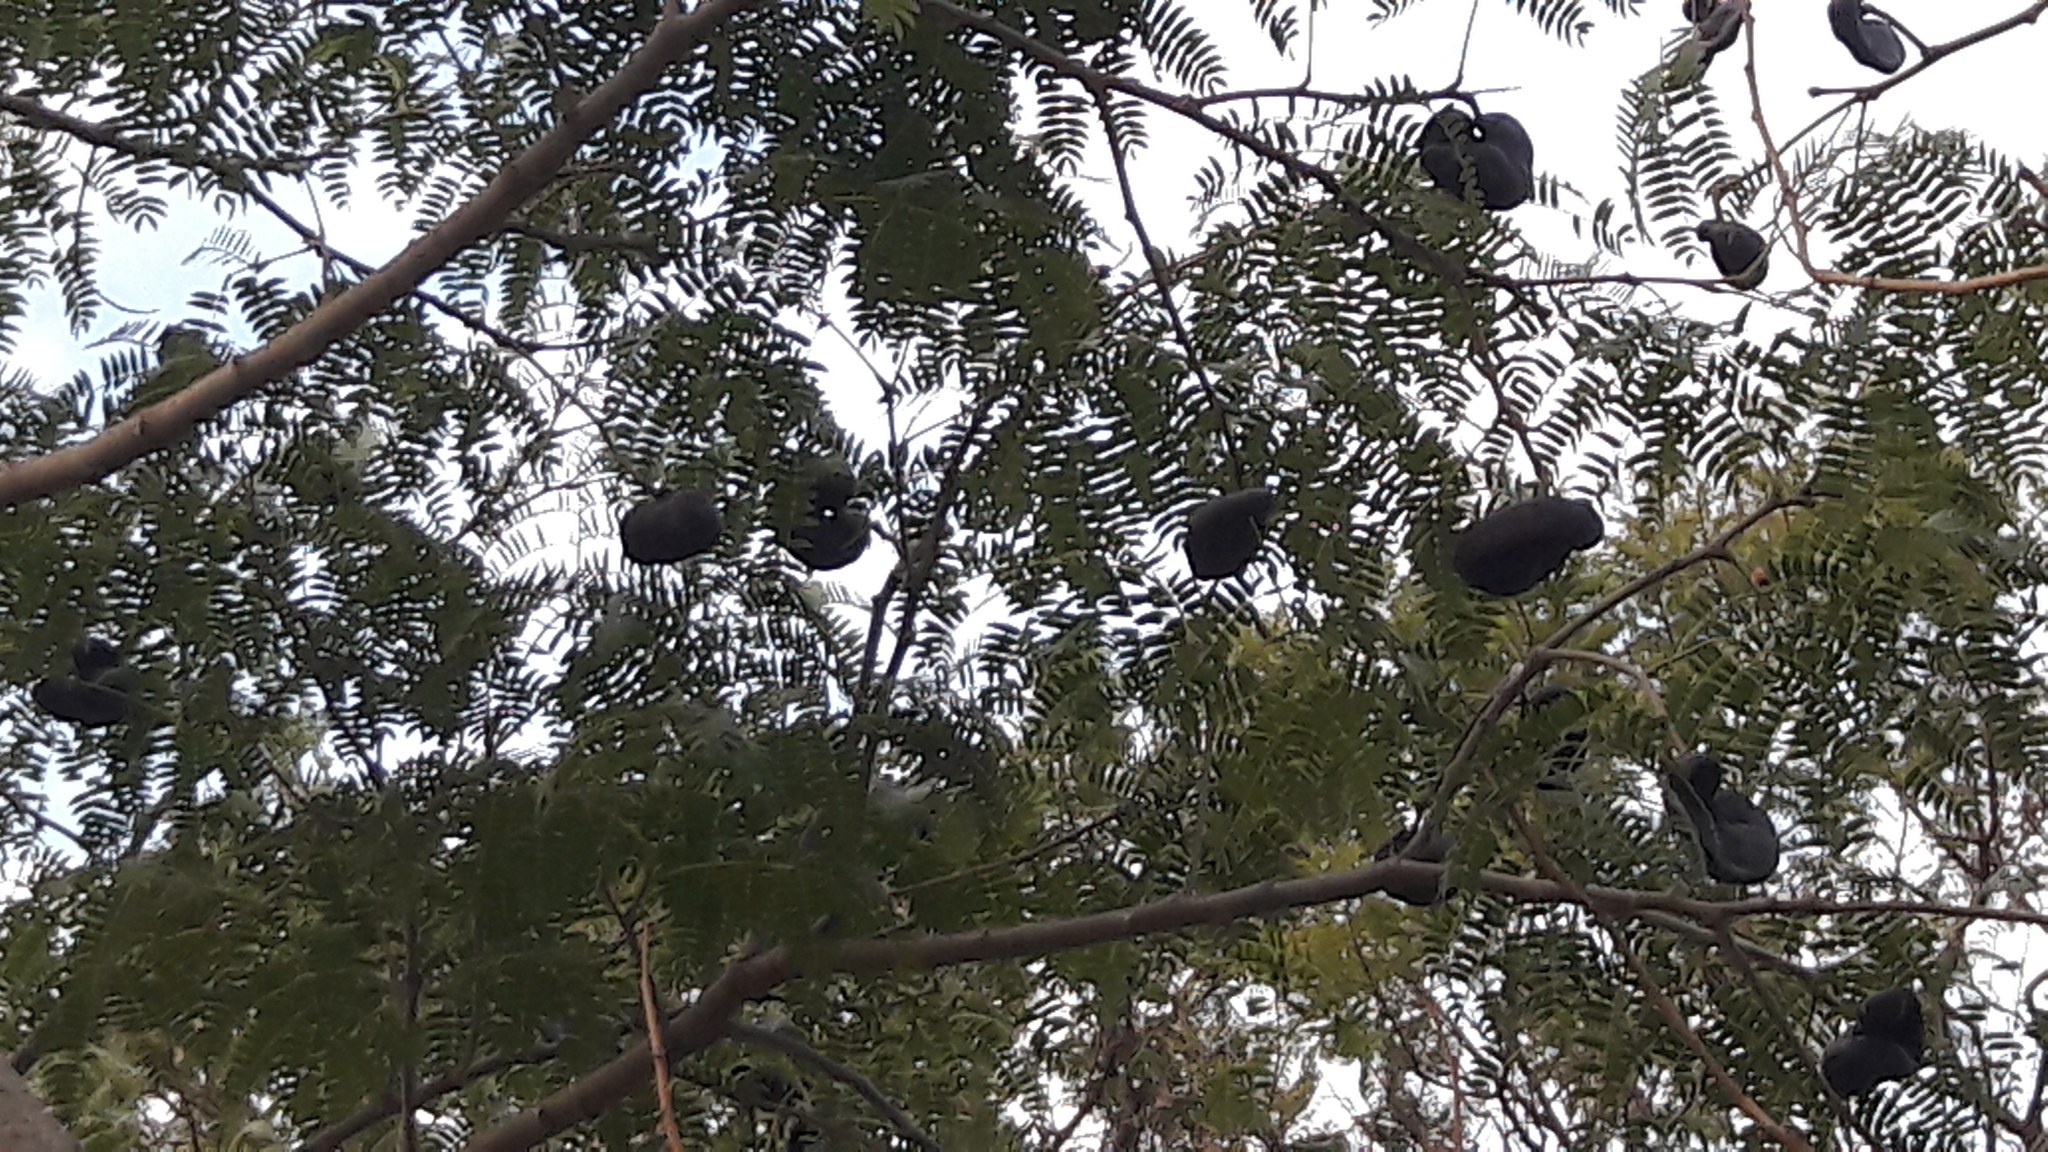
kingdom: Plantae
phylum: Tracheophyta
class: Magnoliopsida
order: Fabales
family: Fabaceae
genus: Enterolobium
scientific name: Enterolobium contortisiliquum
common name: Pacara earpod tree
